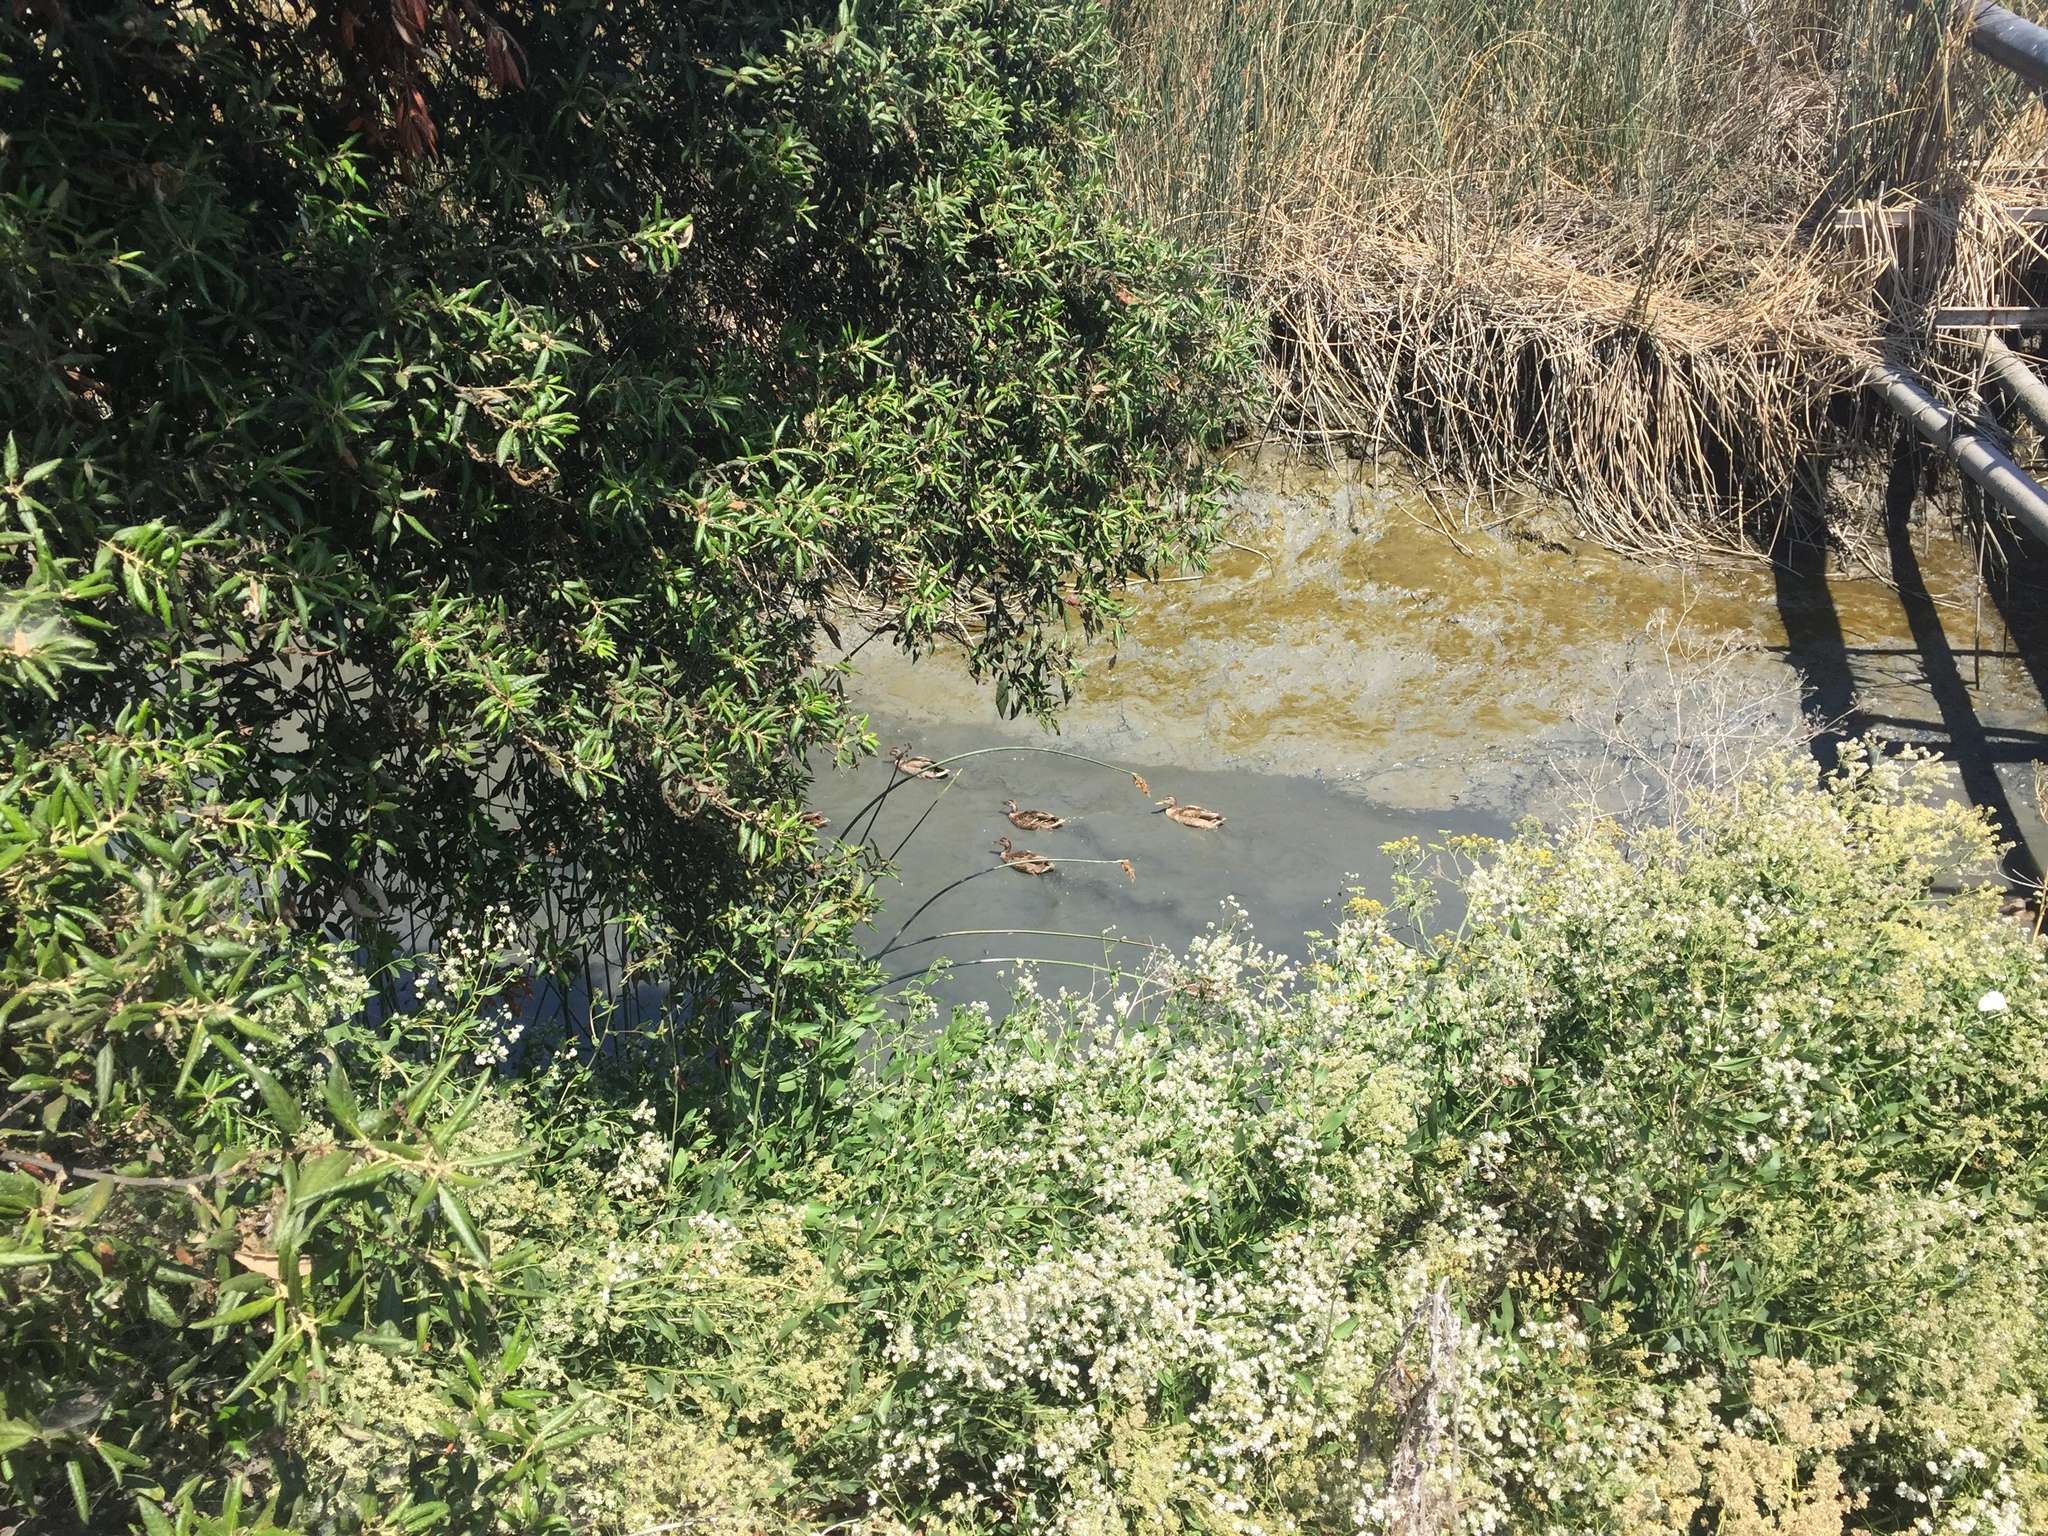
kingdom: Animalia
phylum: Chordata
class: Aves
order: Anseriformes
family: Anatidae
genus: Anas
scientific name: Anas platyrhynchos
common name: Mallard
